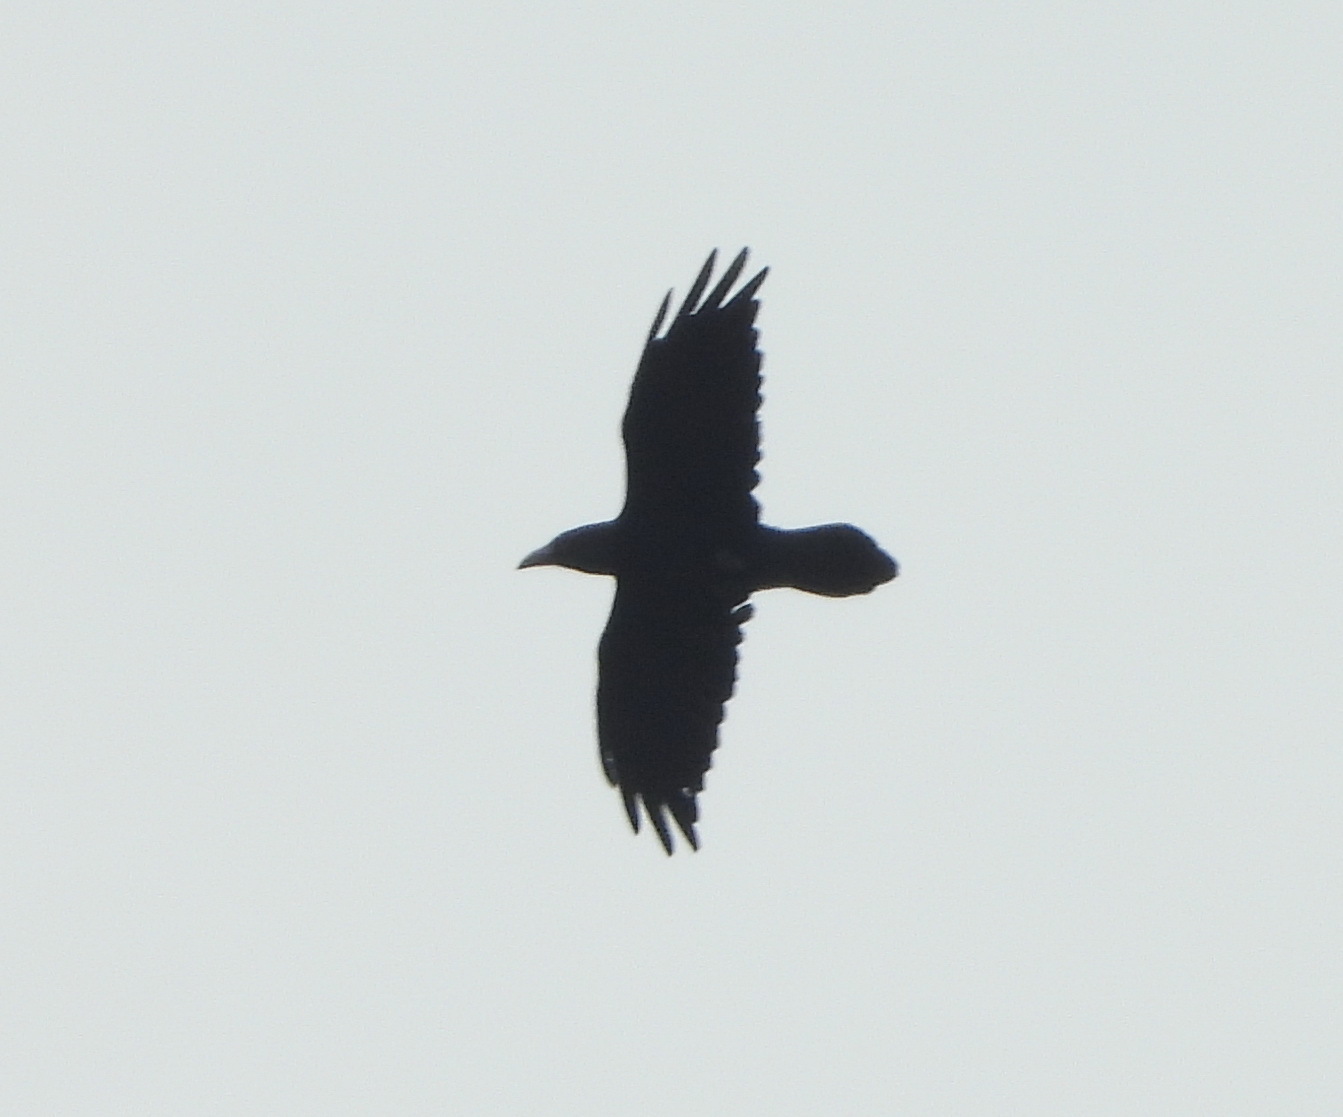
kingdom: Animalia
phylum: Chordata
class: Aves
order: Passeriformes
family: Corvidae
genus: Corvus
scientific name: Corvus corax
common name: Common raven
